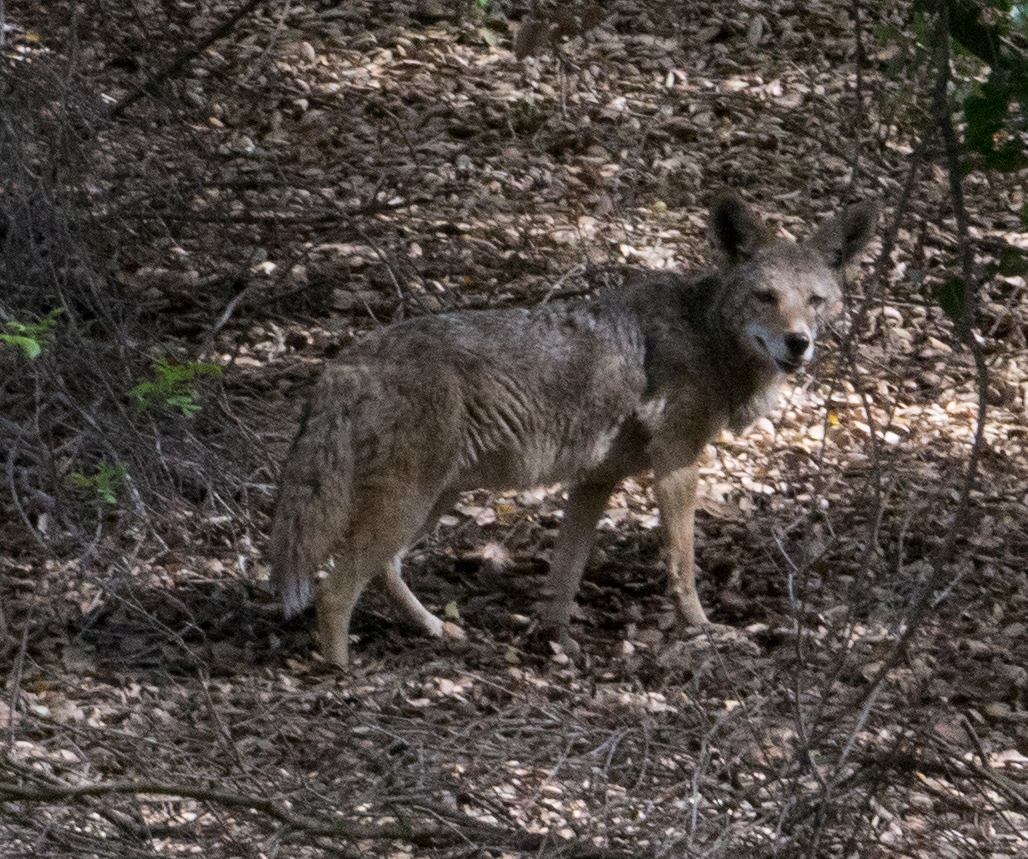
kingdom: Animalia
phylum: Chordata
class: Mammalia
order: Carnivora
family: Canidae
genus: Canis
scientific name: Canis latrans
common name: Coyote
